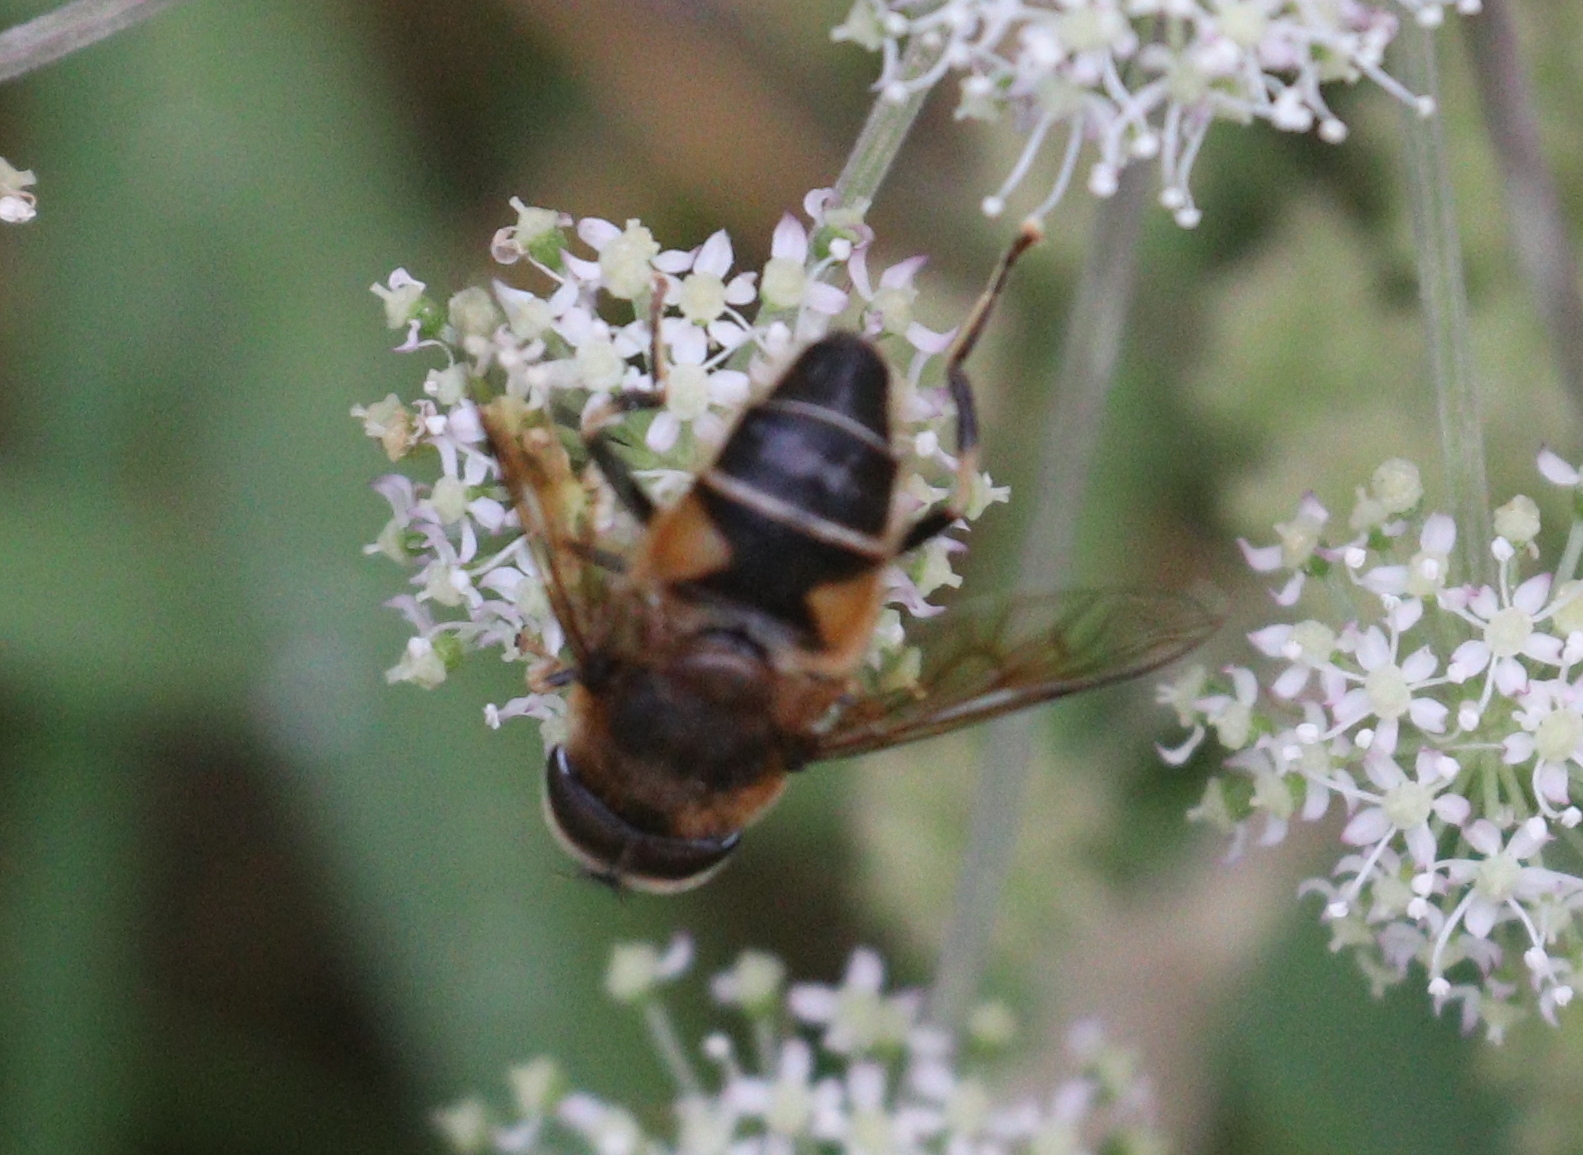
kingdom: Animalia
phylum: Arthropoda
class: Insecta
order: Diptera
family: Syrphidae
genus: Eristalis
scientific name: Eristalis pertinax
